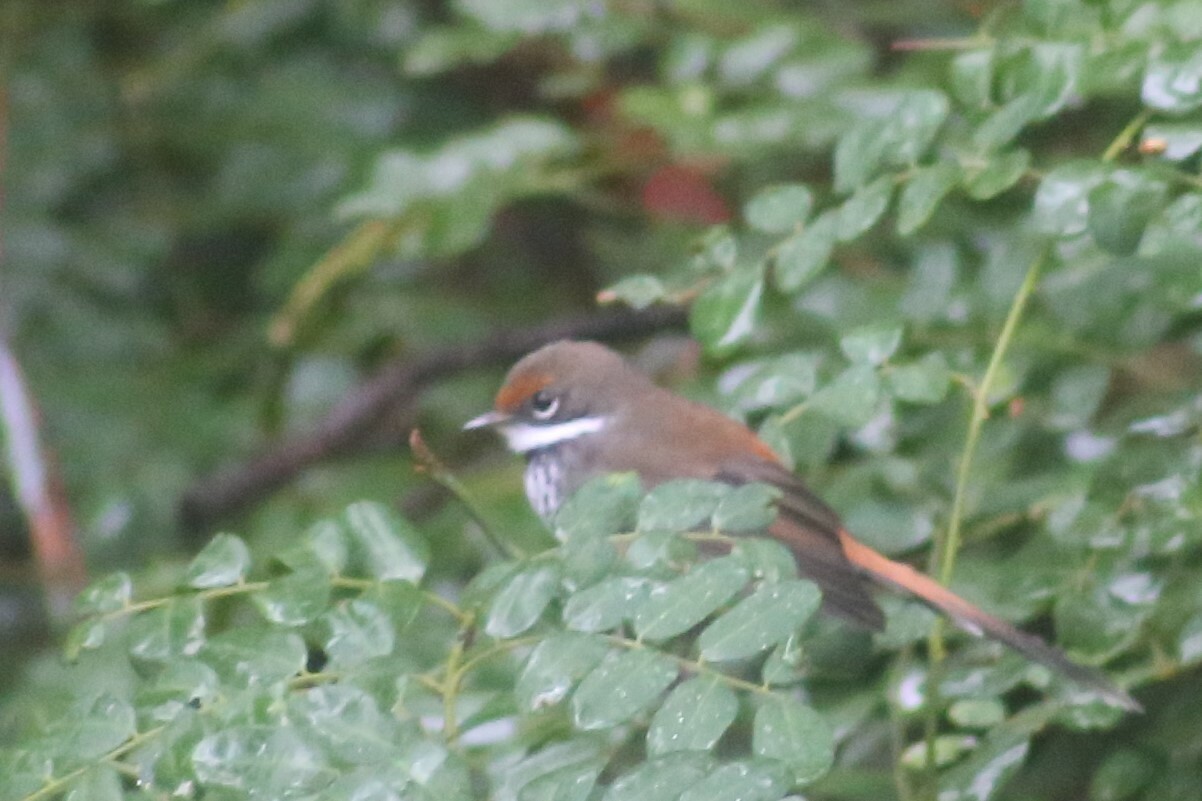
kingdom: Animalia
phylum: Chordata
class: Aves
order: Passeriformes
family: Rhipiduridae
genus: Rhipidura
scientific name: Rhipidura rufifrons
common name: Rufous fantail
